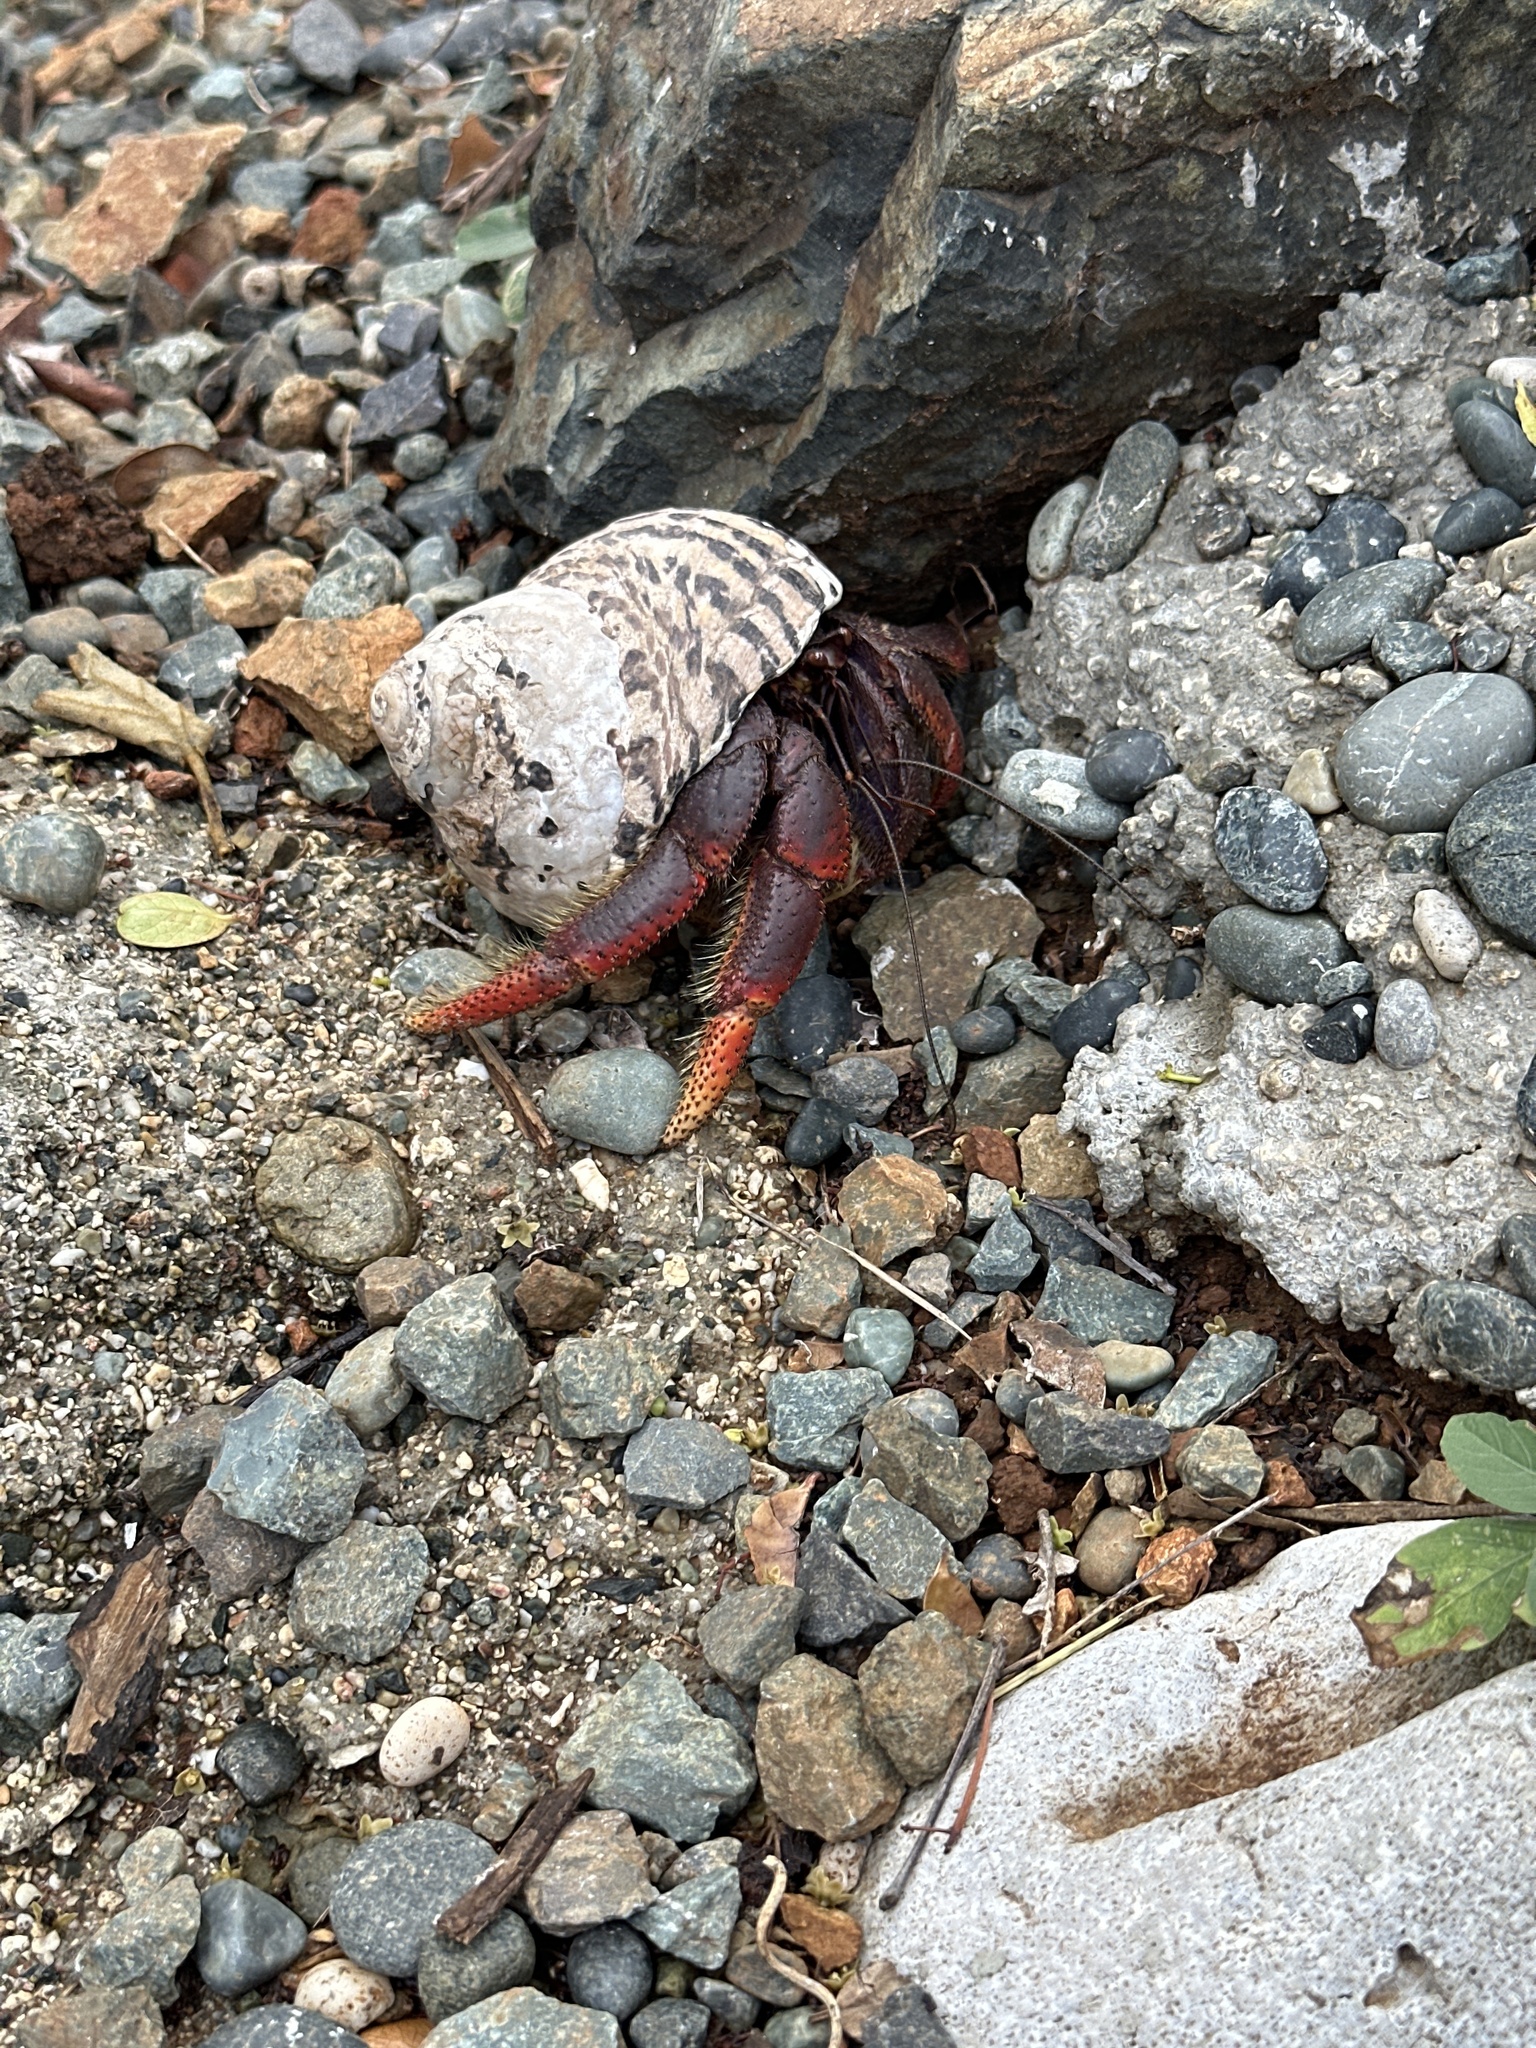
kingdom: Animalia
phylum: Arthropoda
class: Malacostraca
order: Decapoda
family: Coenobitidae
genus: Coenobita
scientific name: Coenobita clypeatus
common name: Caribbean hermit crab
